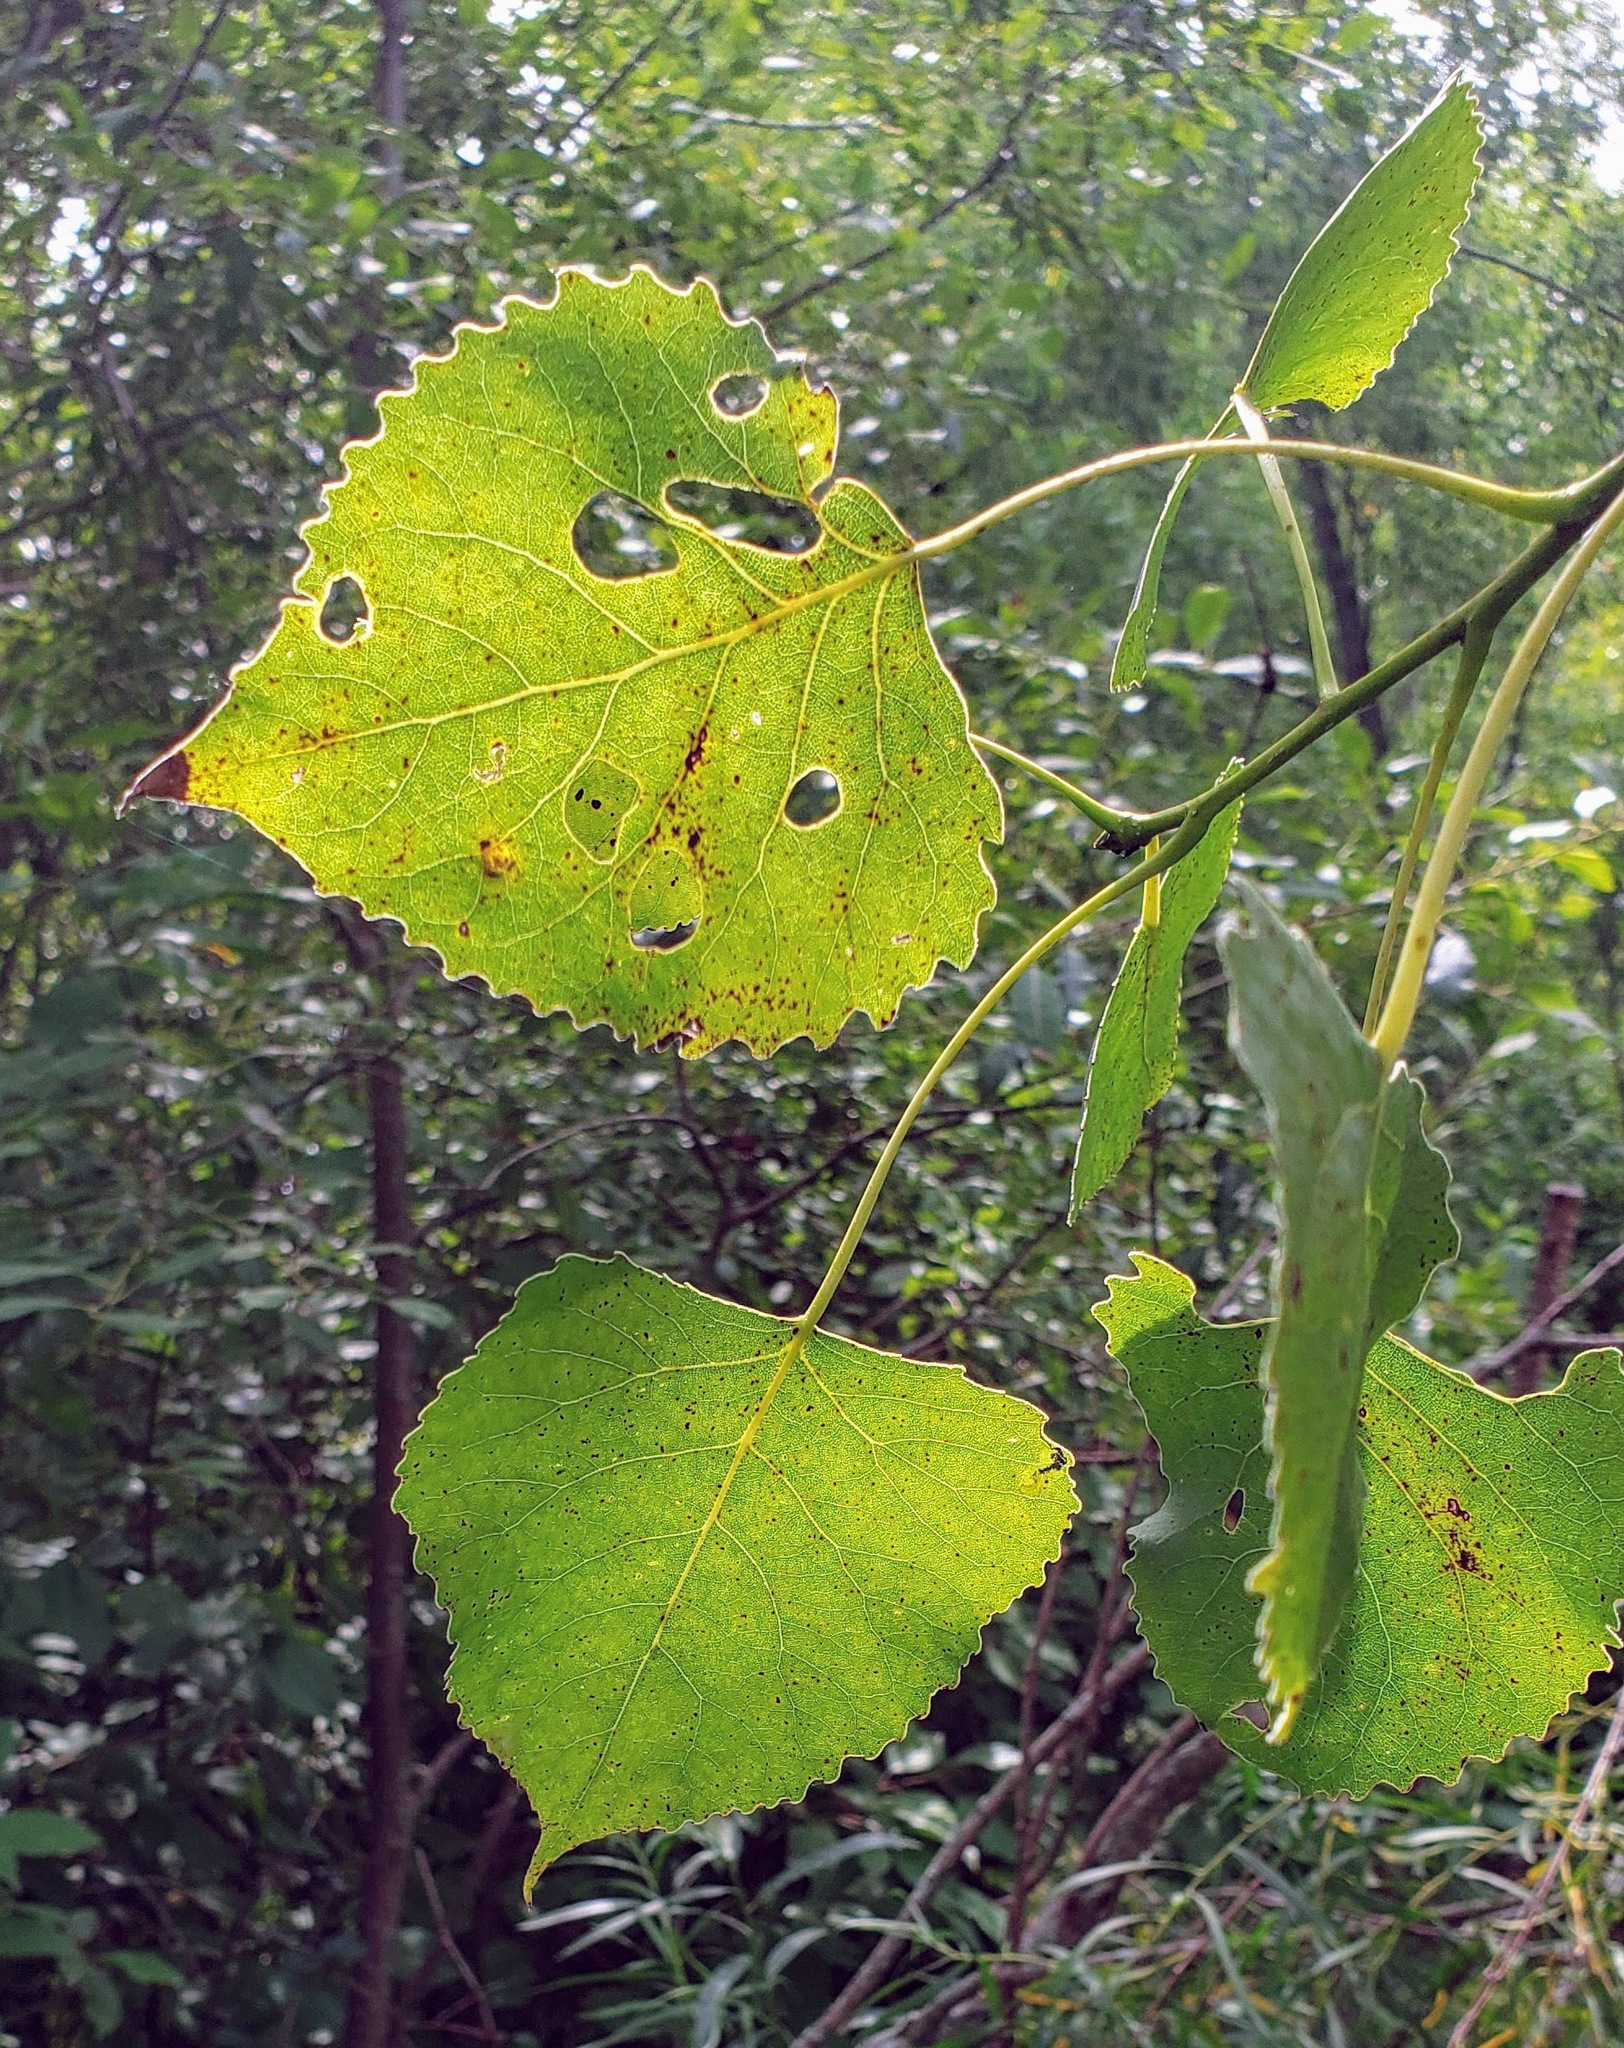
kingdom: Plantae
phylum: Tracheophyta
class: Magnoliopsida
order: Malpighiales
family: Salicaceae
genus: Populus
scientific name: Populus deltoides
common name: Eastern cottonwood
